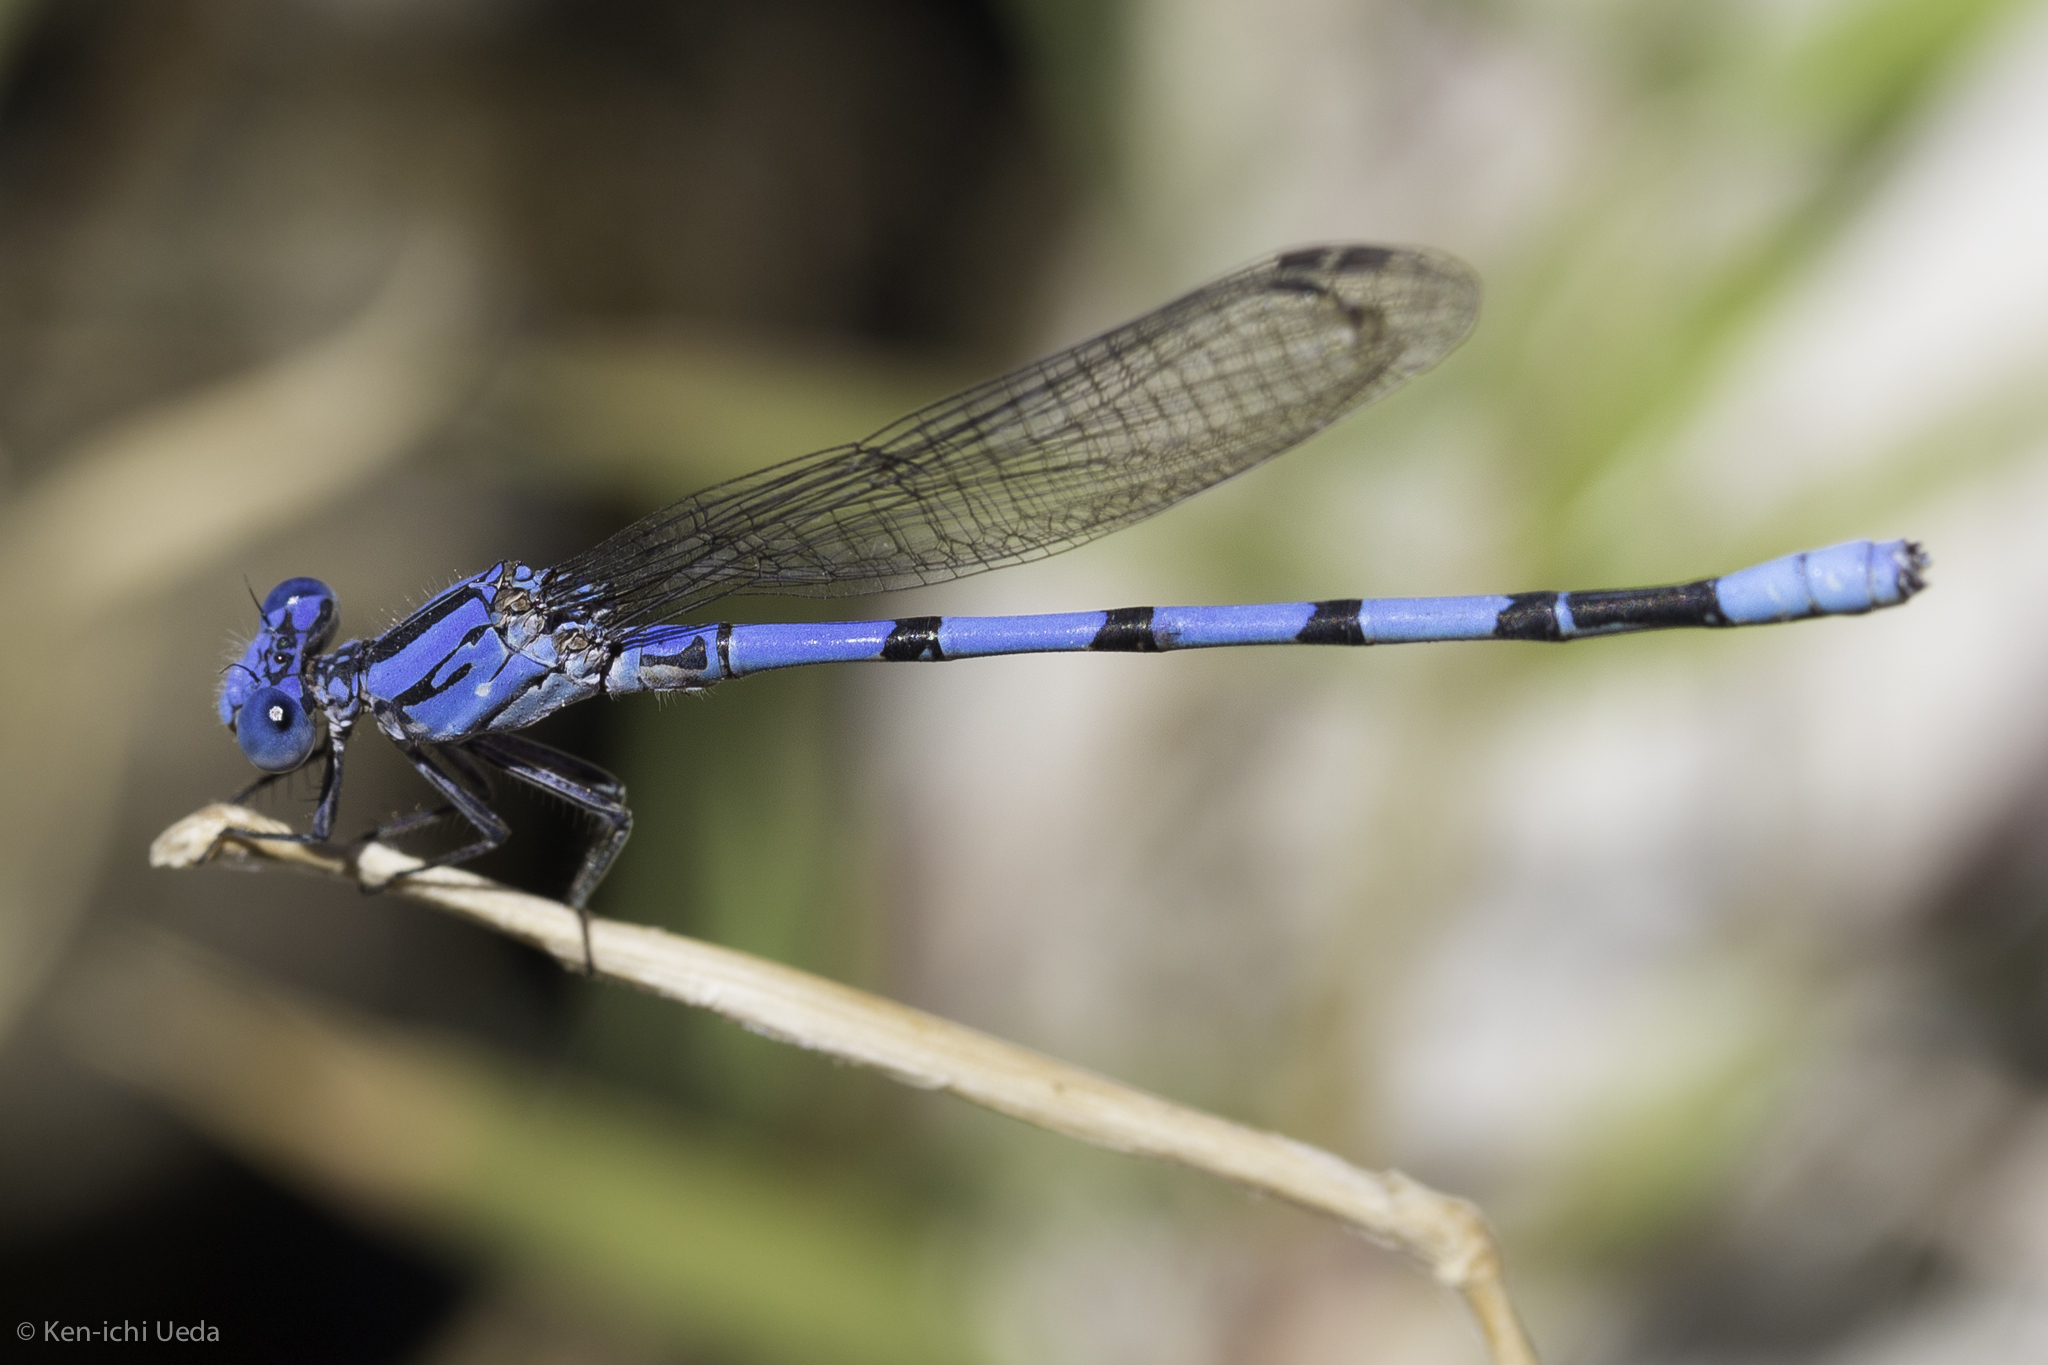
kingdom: Animalia
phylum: Arthropoda
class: Insecta
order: Odonata
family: Coenagrionidae
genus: Argia
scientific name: Argia agrioides
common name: California dancer
